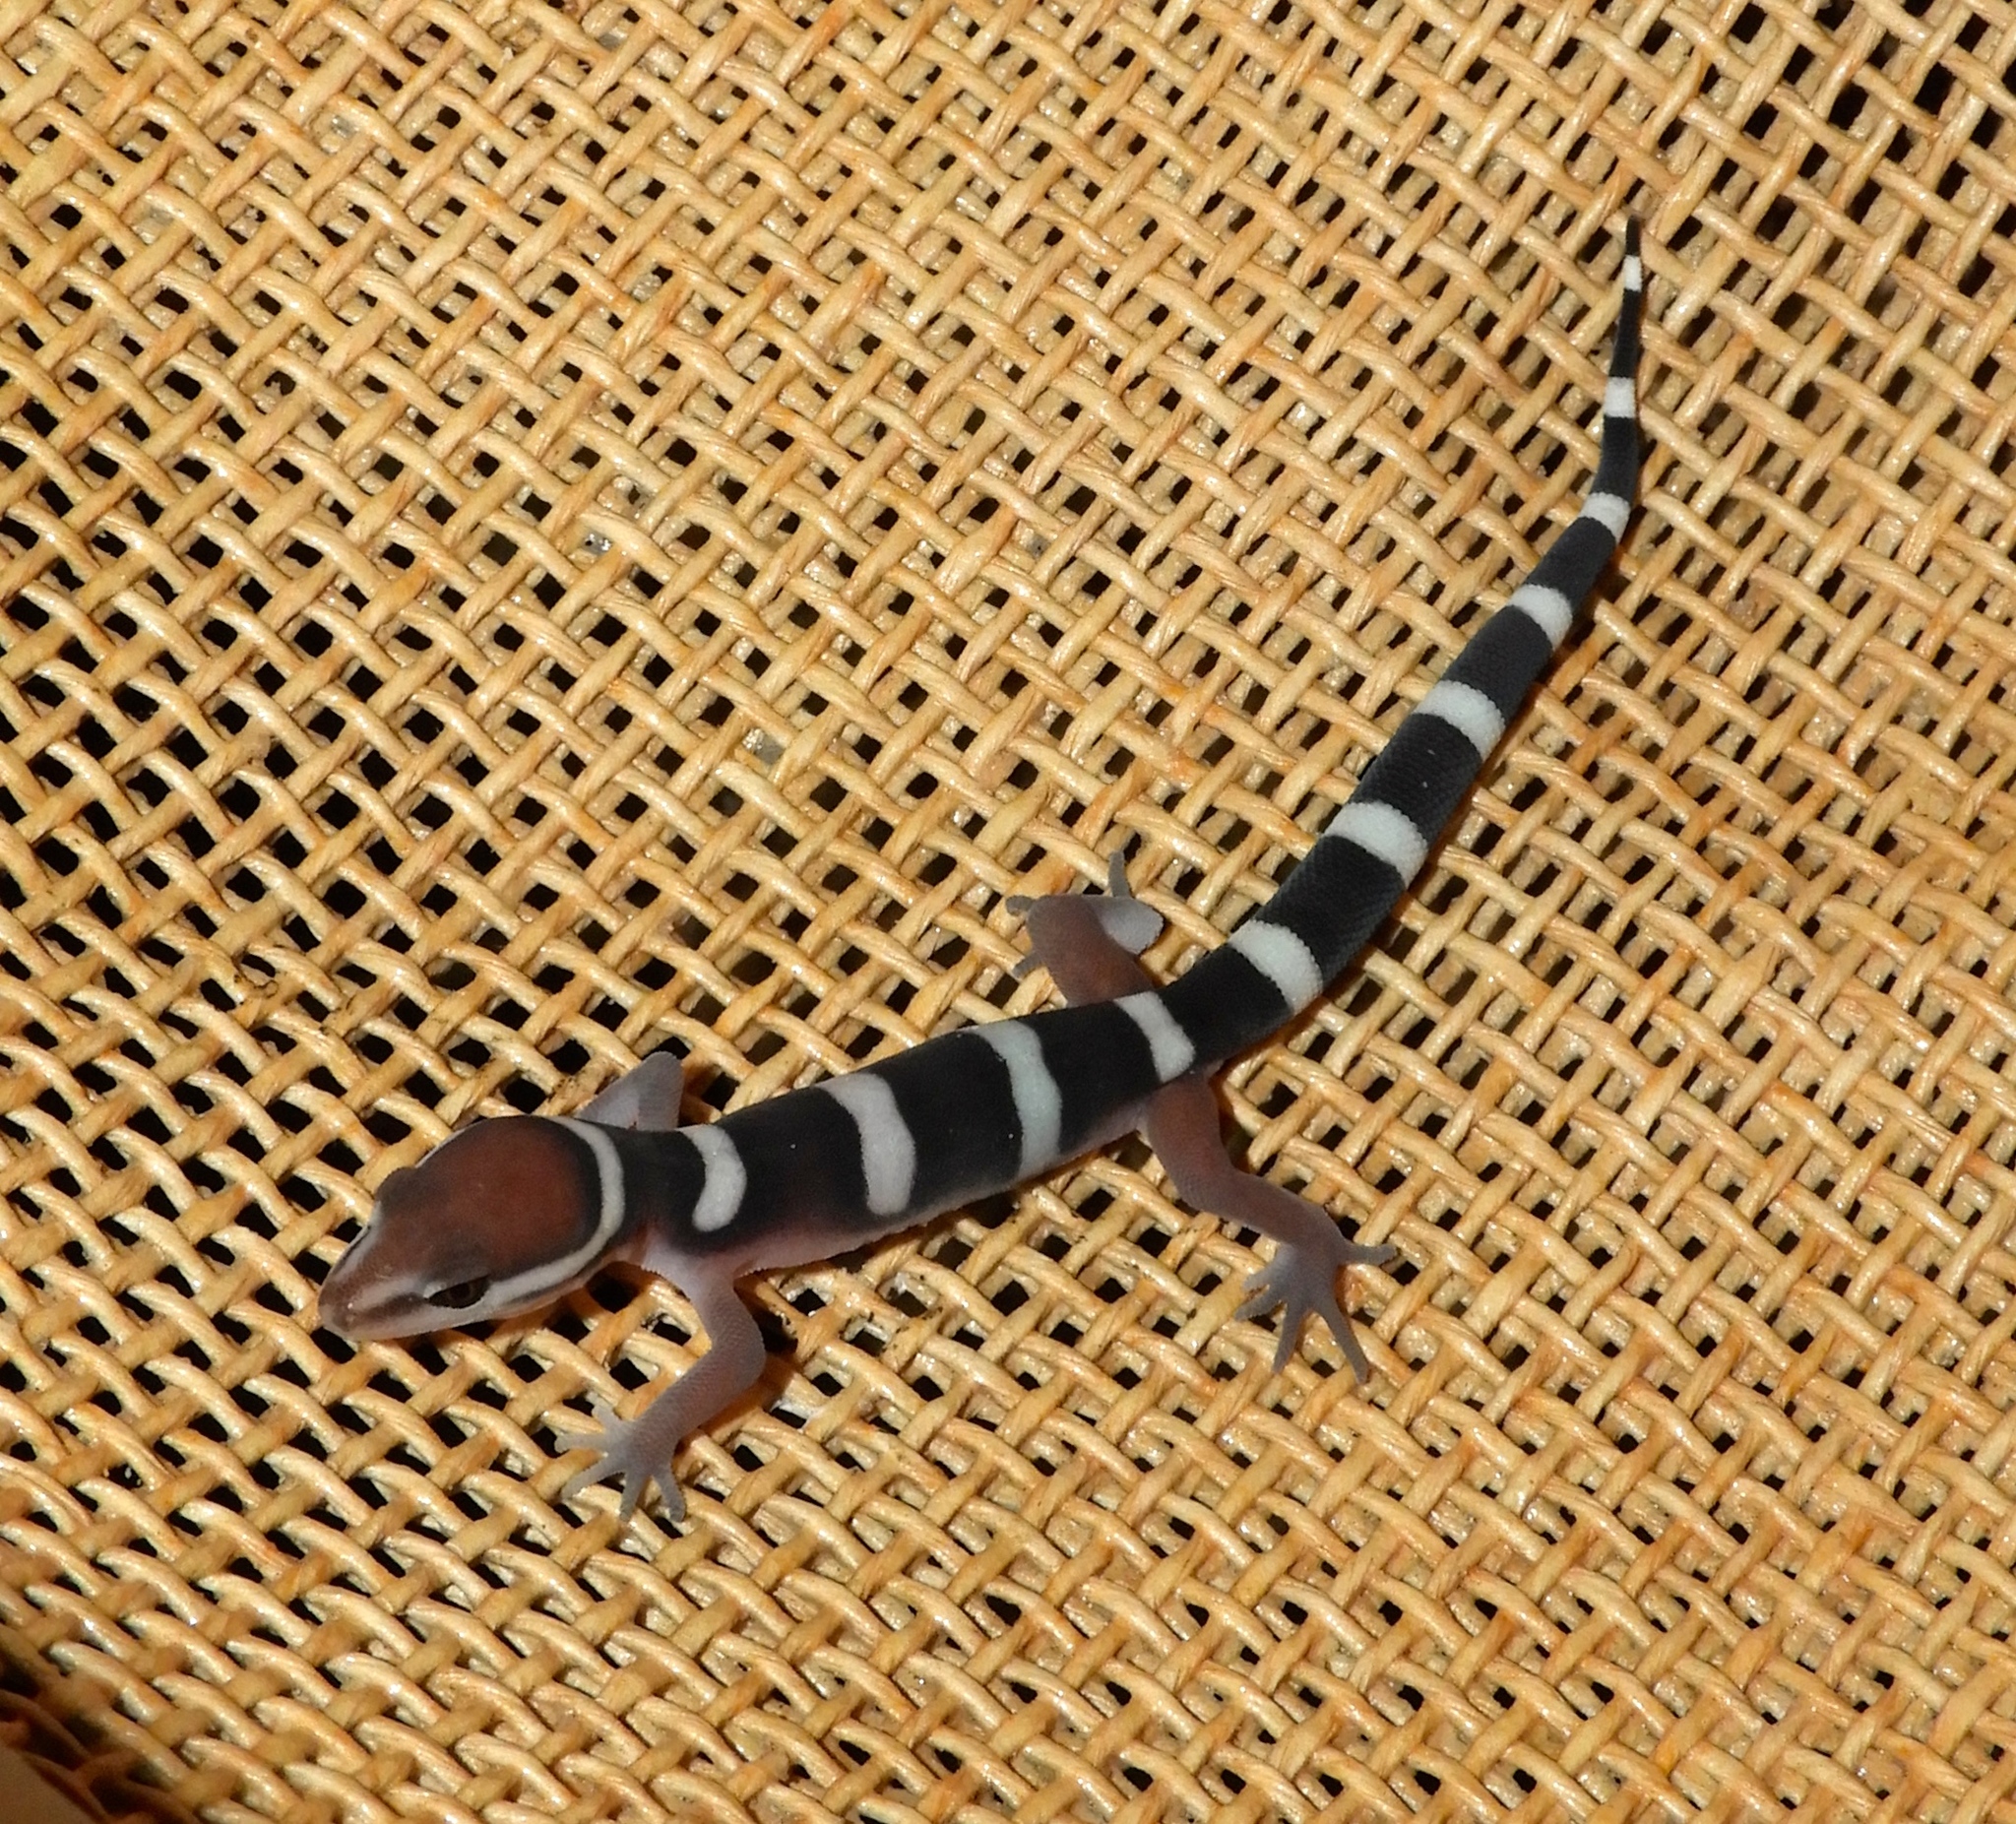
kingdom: Animalia
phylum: Chordata
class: Squamata
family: Eublepharidae
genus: Coleonyx
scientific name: Coleonyx fasciatus
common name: Black banded gecko
